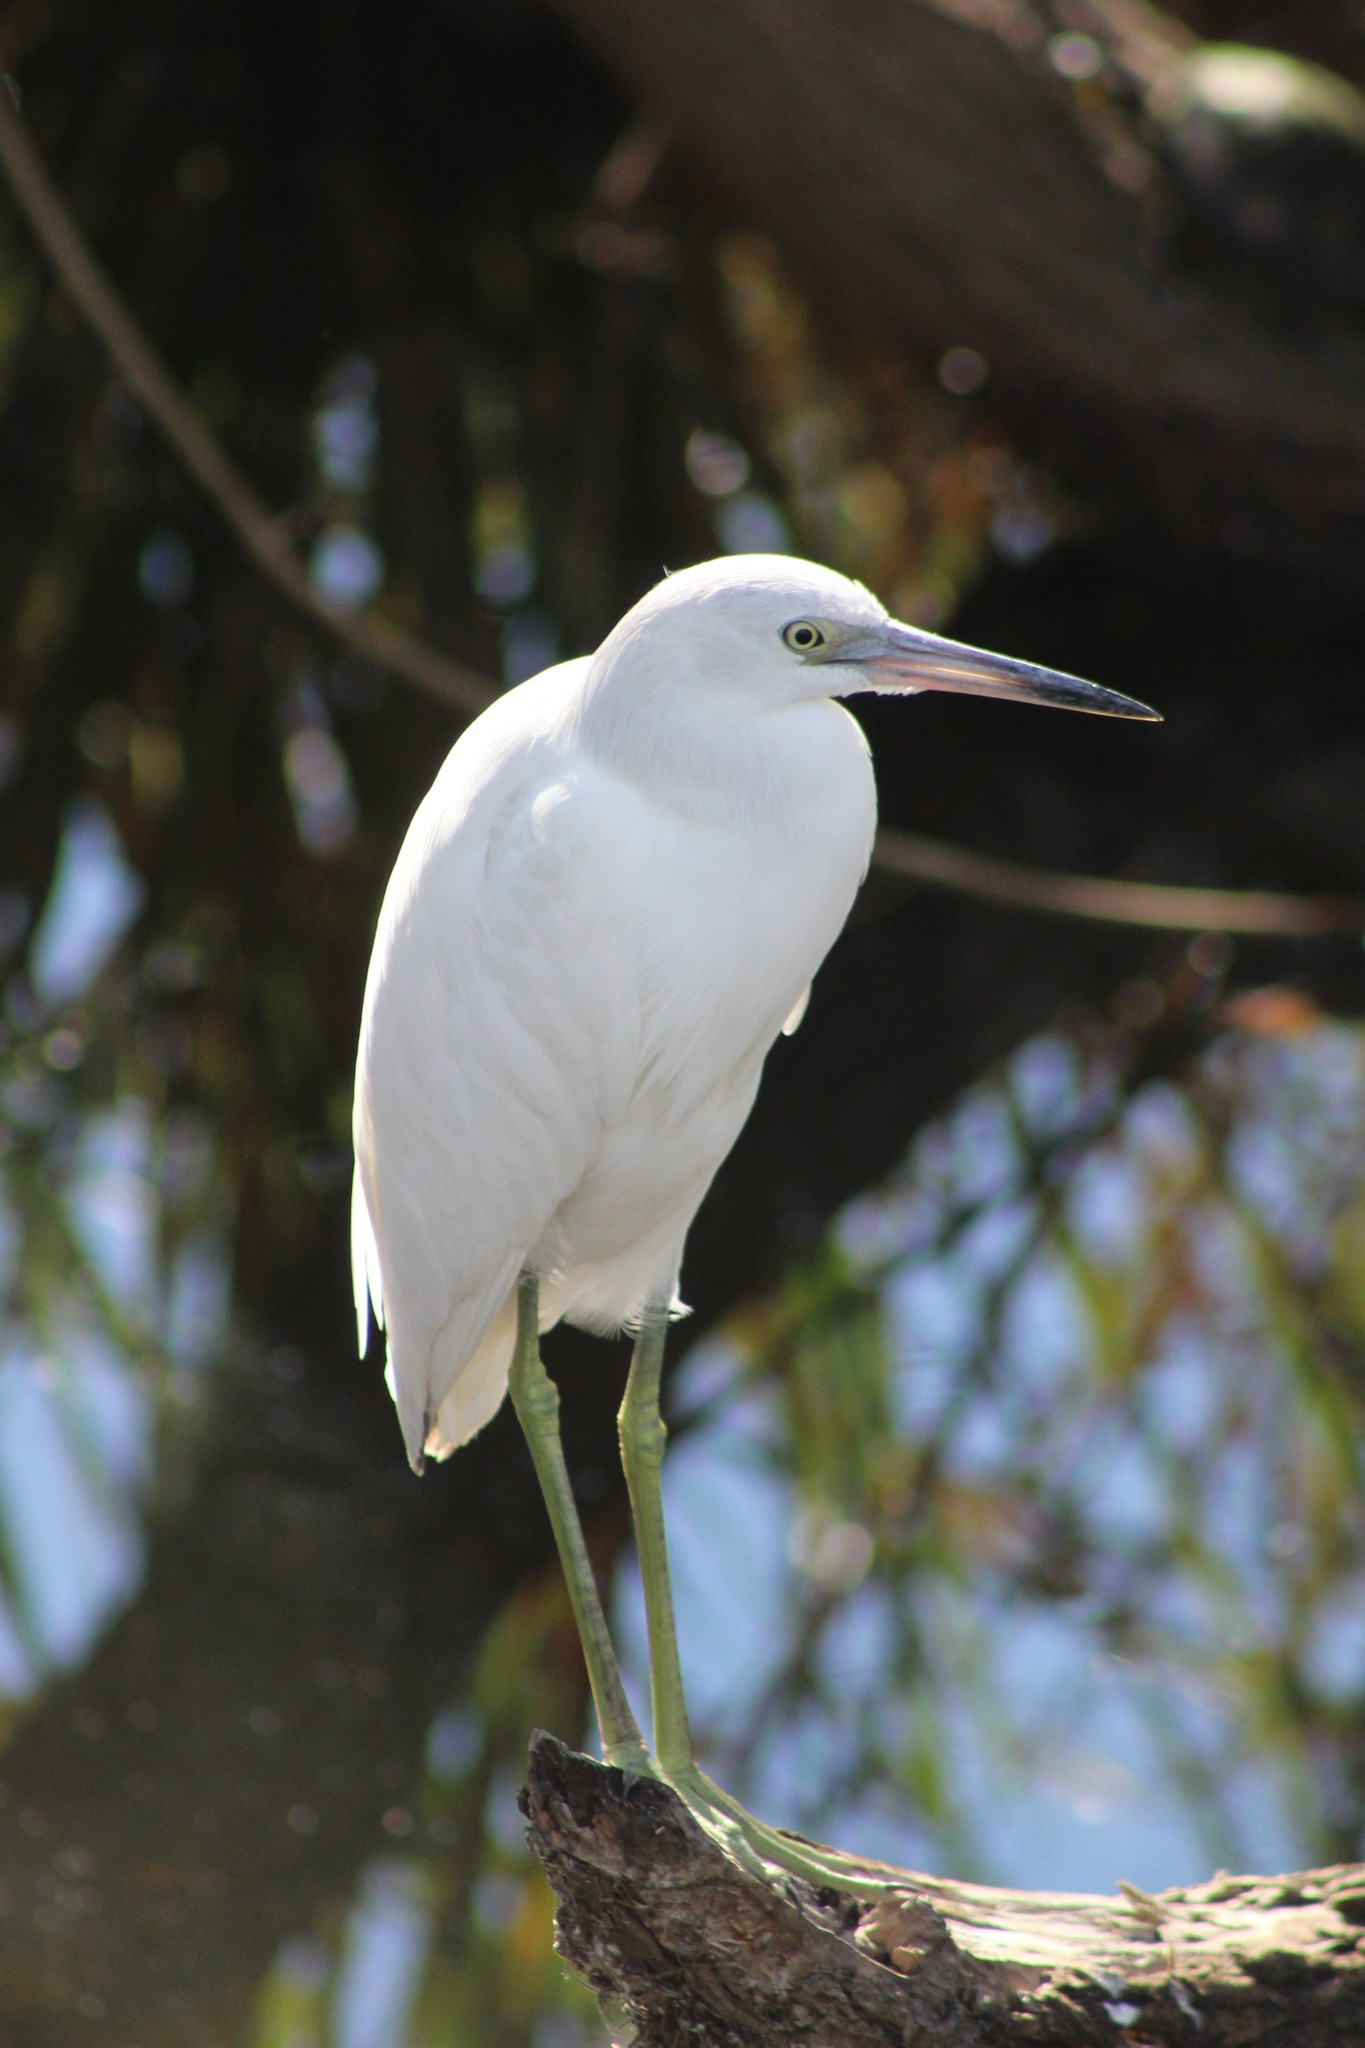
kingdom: Animalia
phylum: Chordata
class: Aves
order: Pelecaniformes
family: Ardeidae
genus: Egretta
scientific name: Egretta caerulea
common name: Little blue heron
